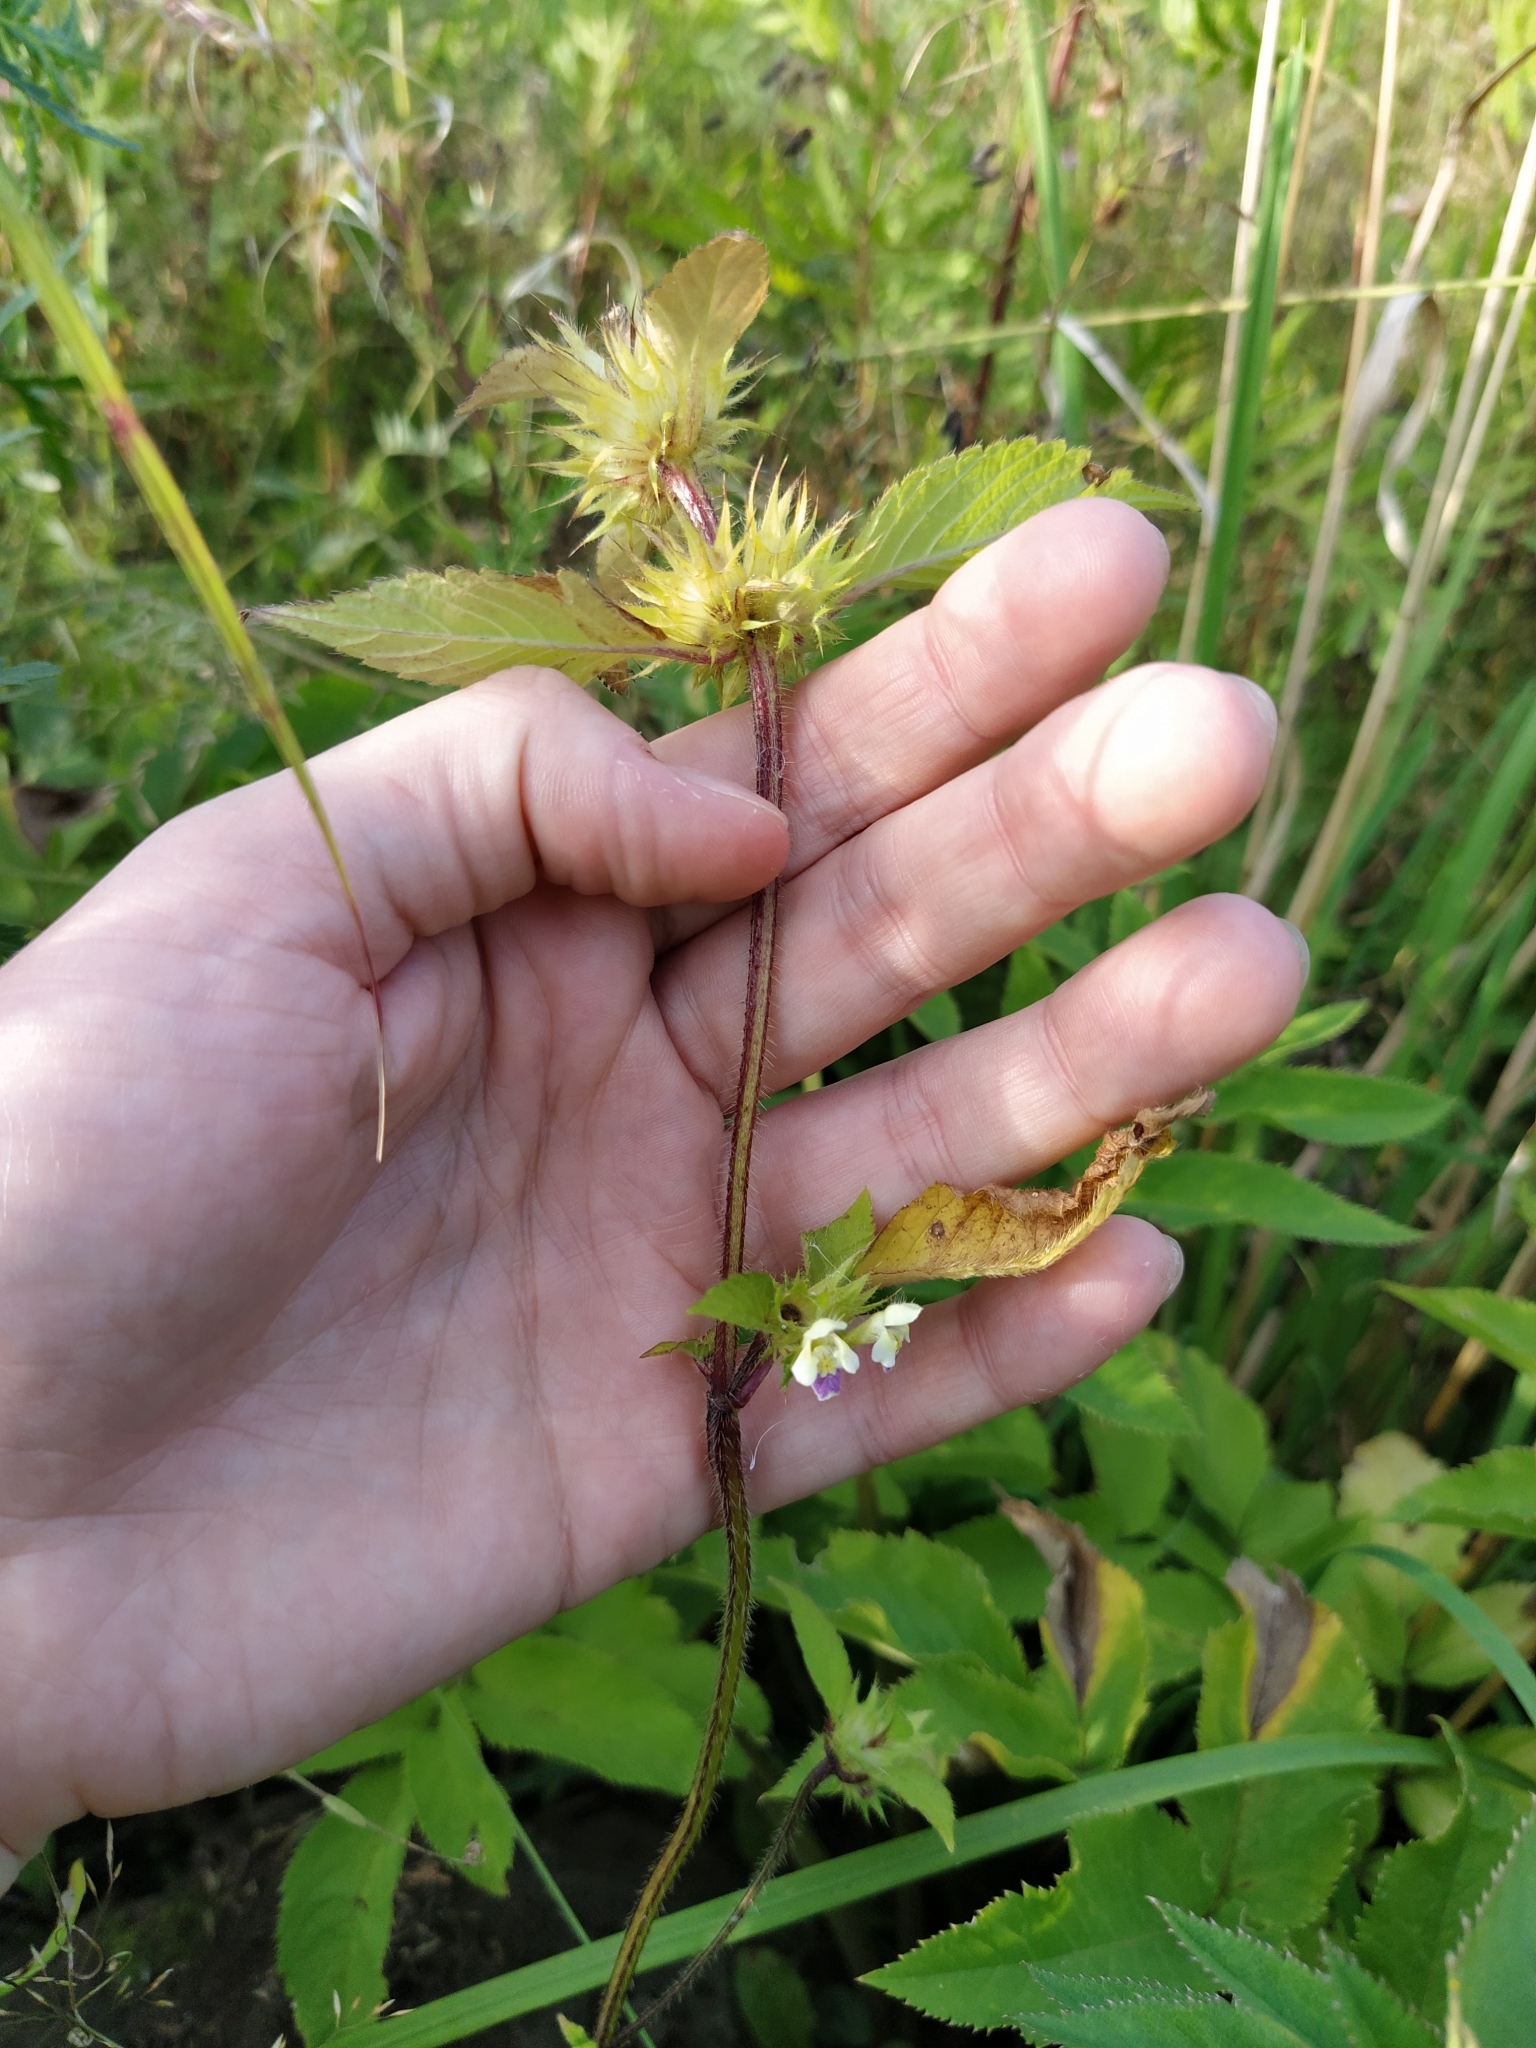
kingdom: Plantae
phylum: Tracheophyta
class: Magnoliopsida
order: Lamiales
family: Lamiaceae
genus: Galeopsis
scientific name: Galeopsis speciosa
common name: Large-flowered hemp-nettle
